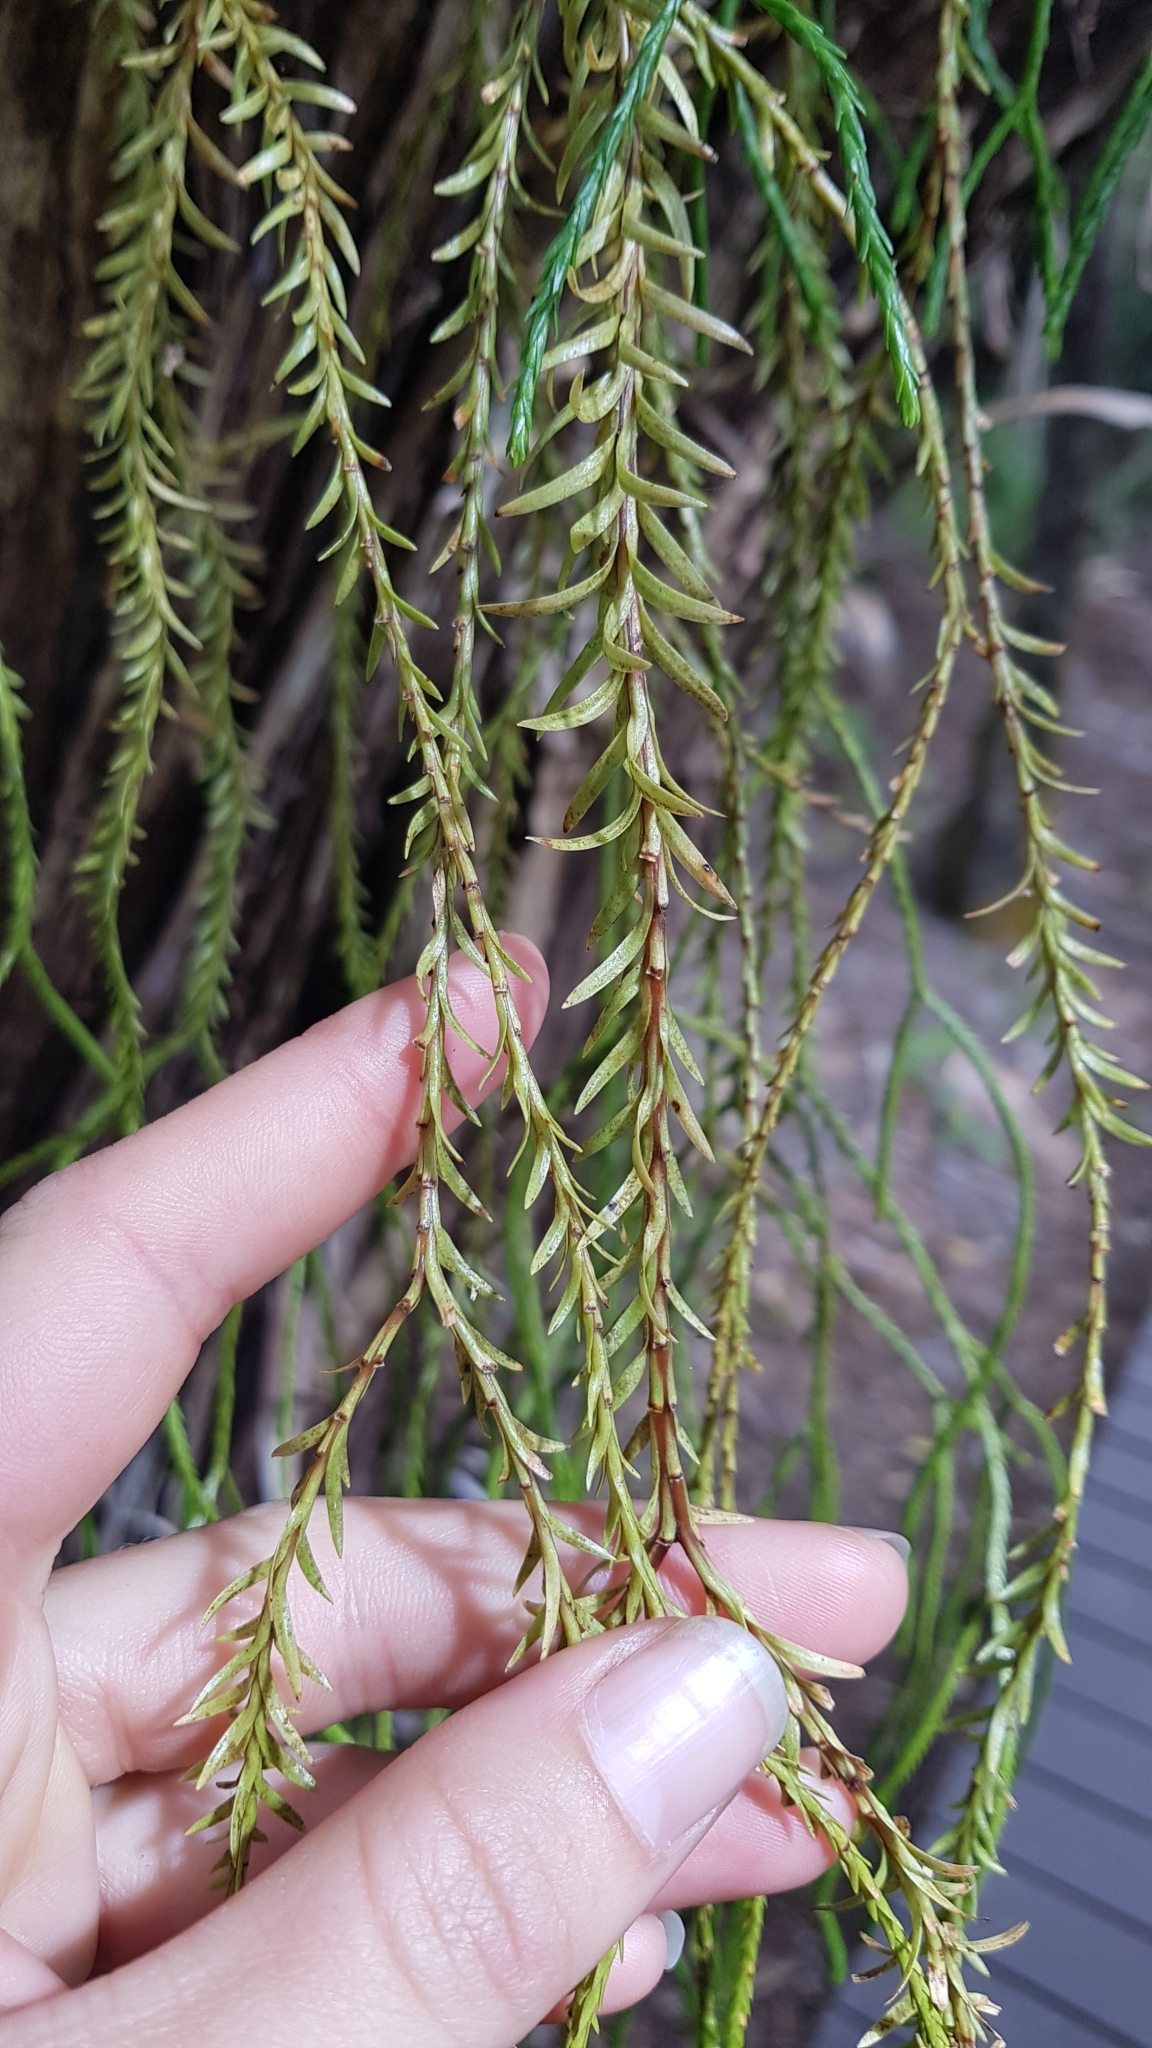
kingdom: Plantae
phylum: Tracheophyta
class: Lycopodiopsida
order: Lycopodiales
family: Lycopodiaceae
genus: Phlegmariurus
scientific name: Phlegmariurus billardierei
